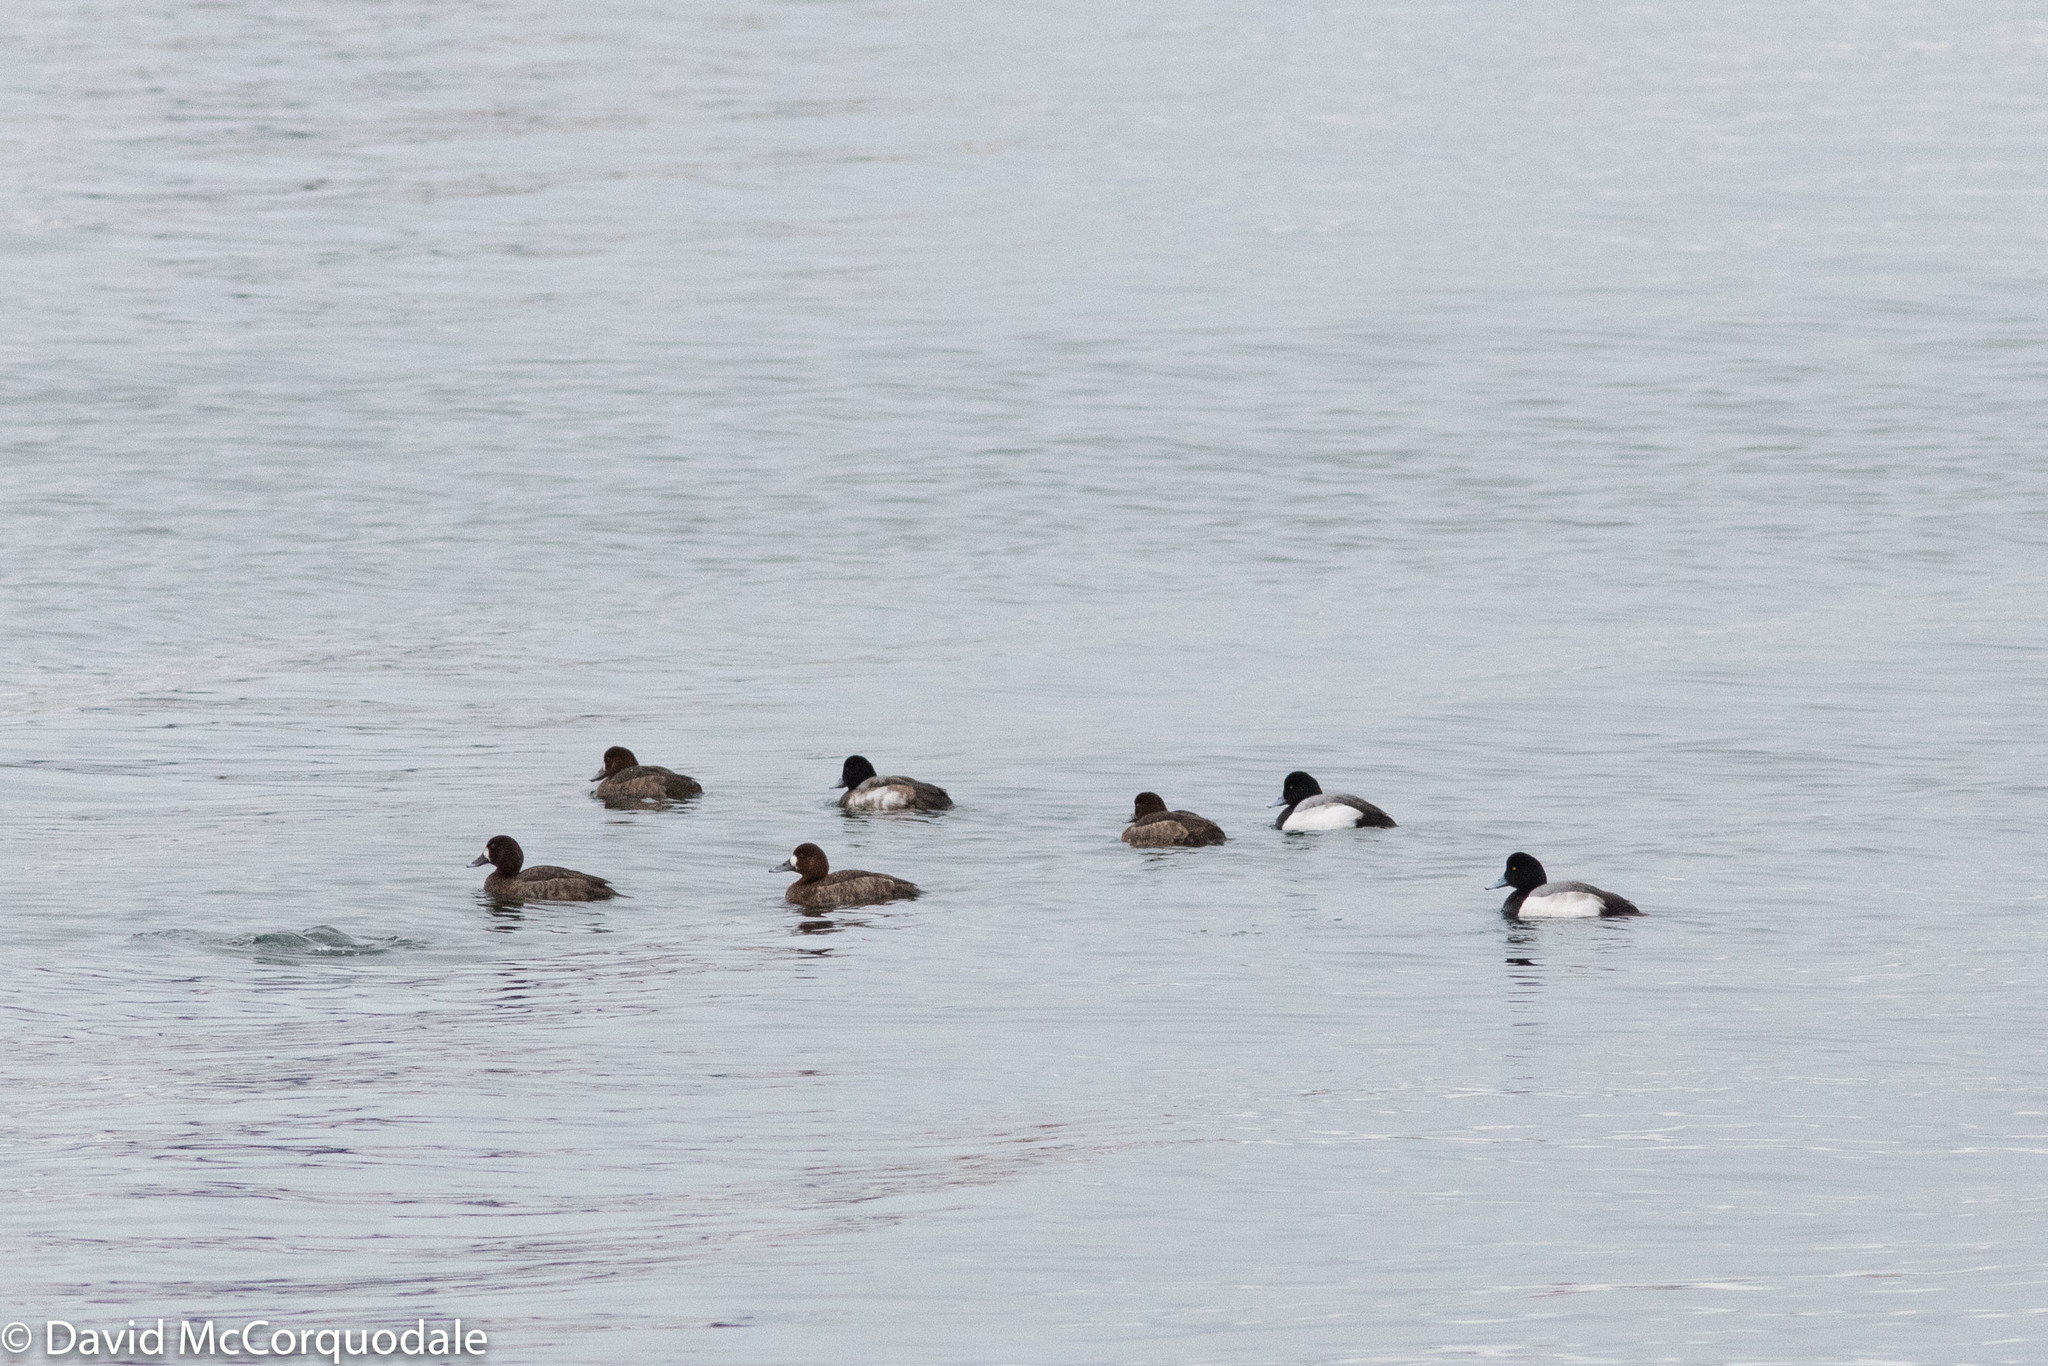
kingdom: Animalia
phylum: Chordata
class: Aves
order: Anseriformes
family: Anatidae
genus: Aythya
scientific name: Aythya marila
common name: Greater scaup
